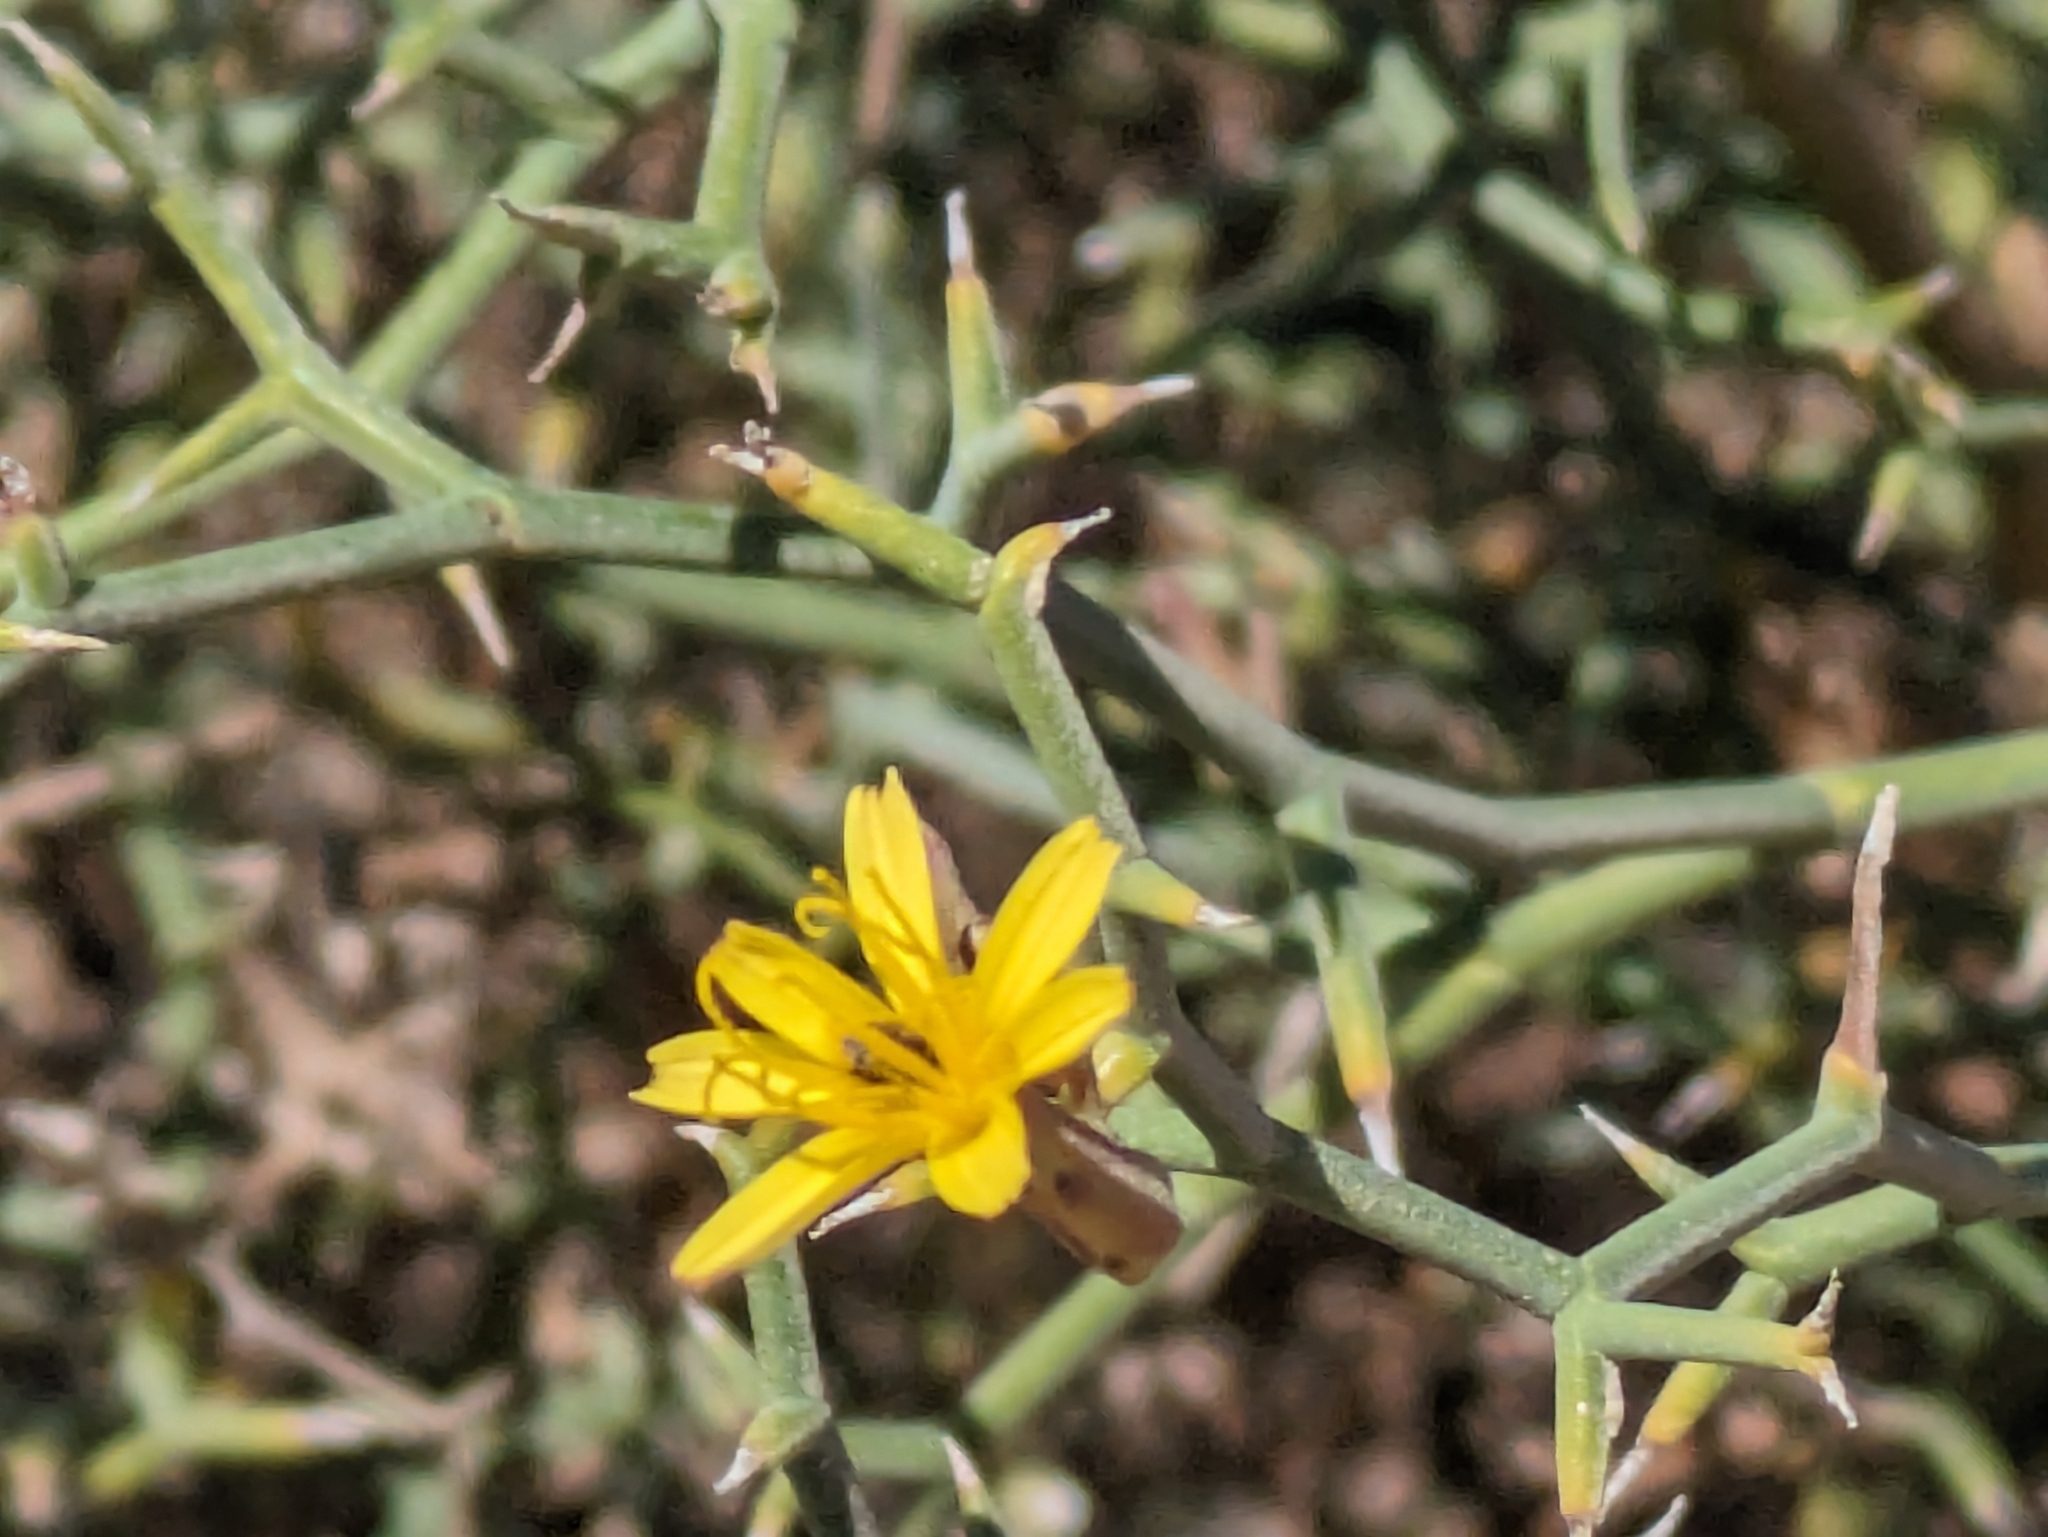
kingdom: Plantae
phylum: Tracheophyta
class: Magnoliopsida
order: Asterales
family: Asteraceae
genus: Launaea
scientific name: Launaea arborescens
